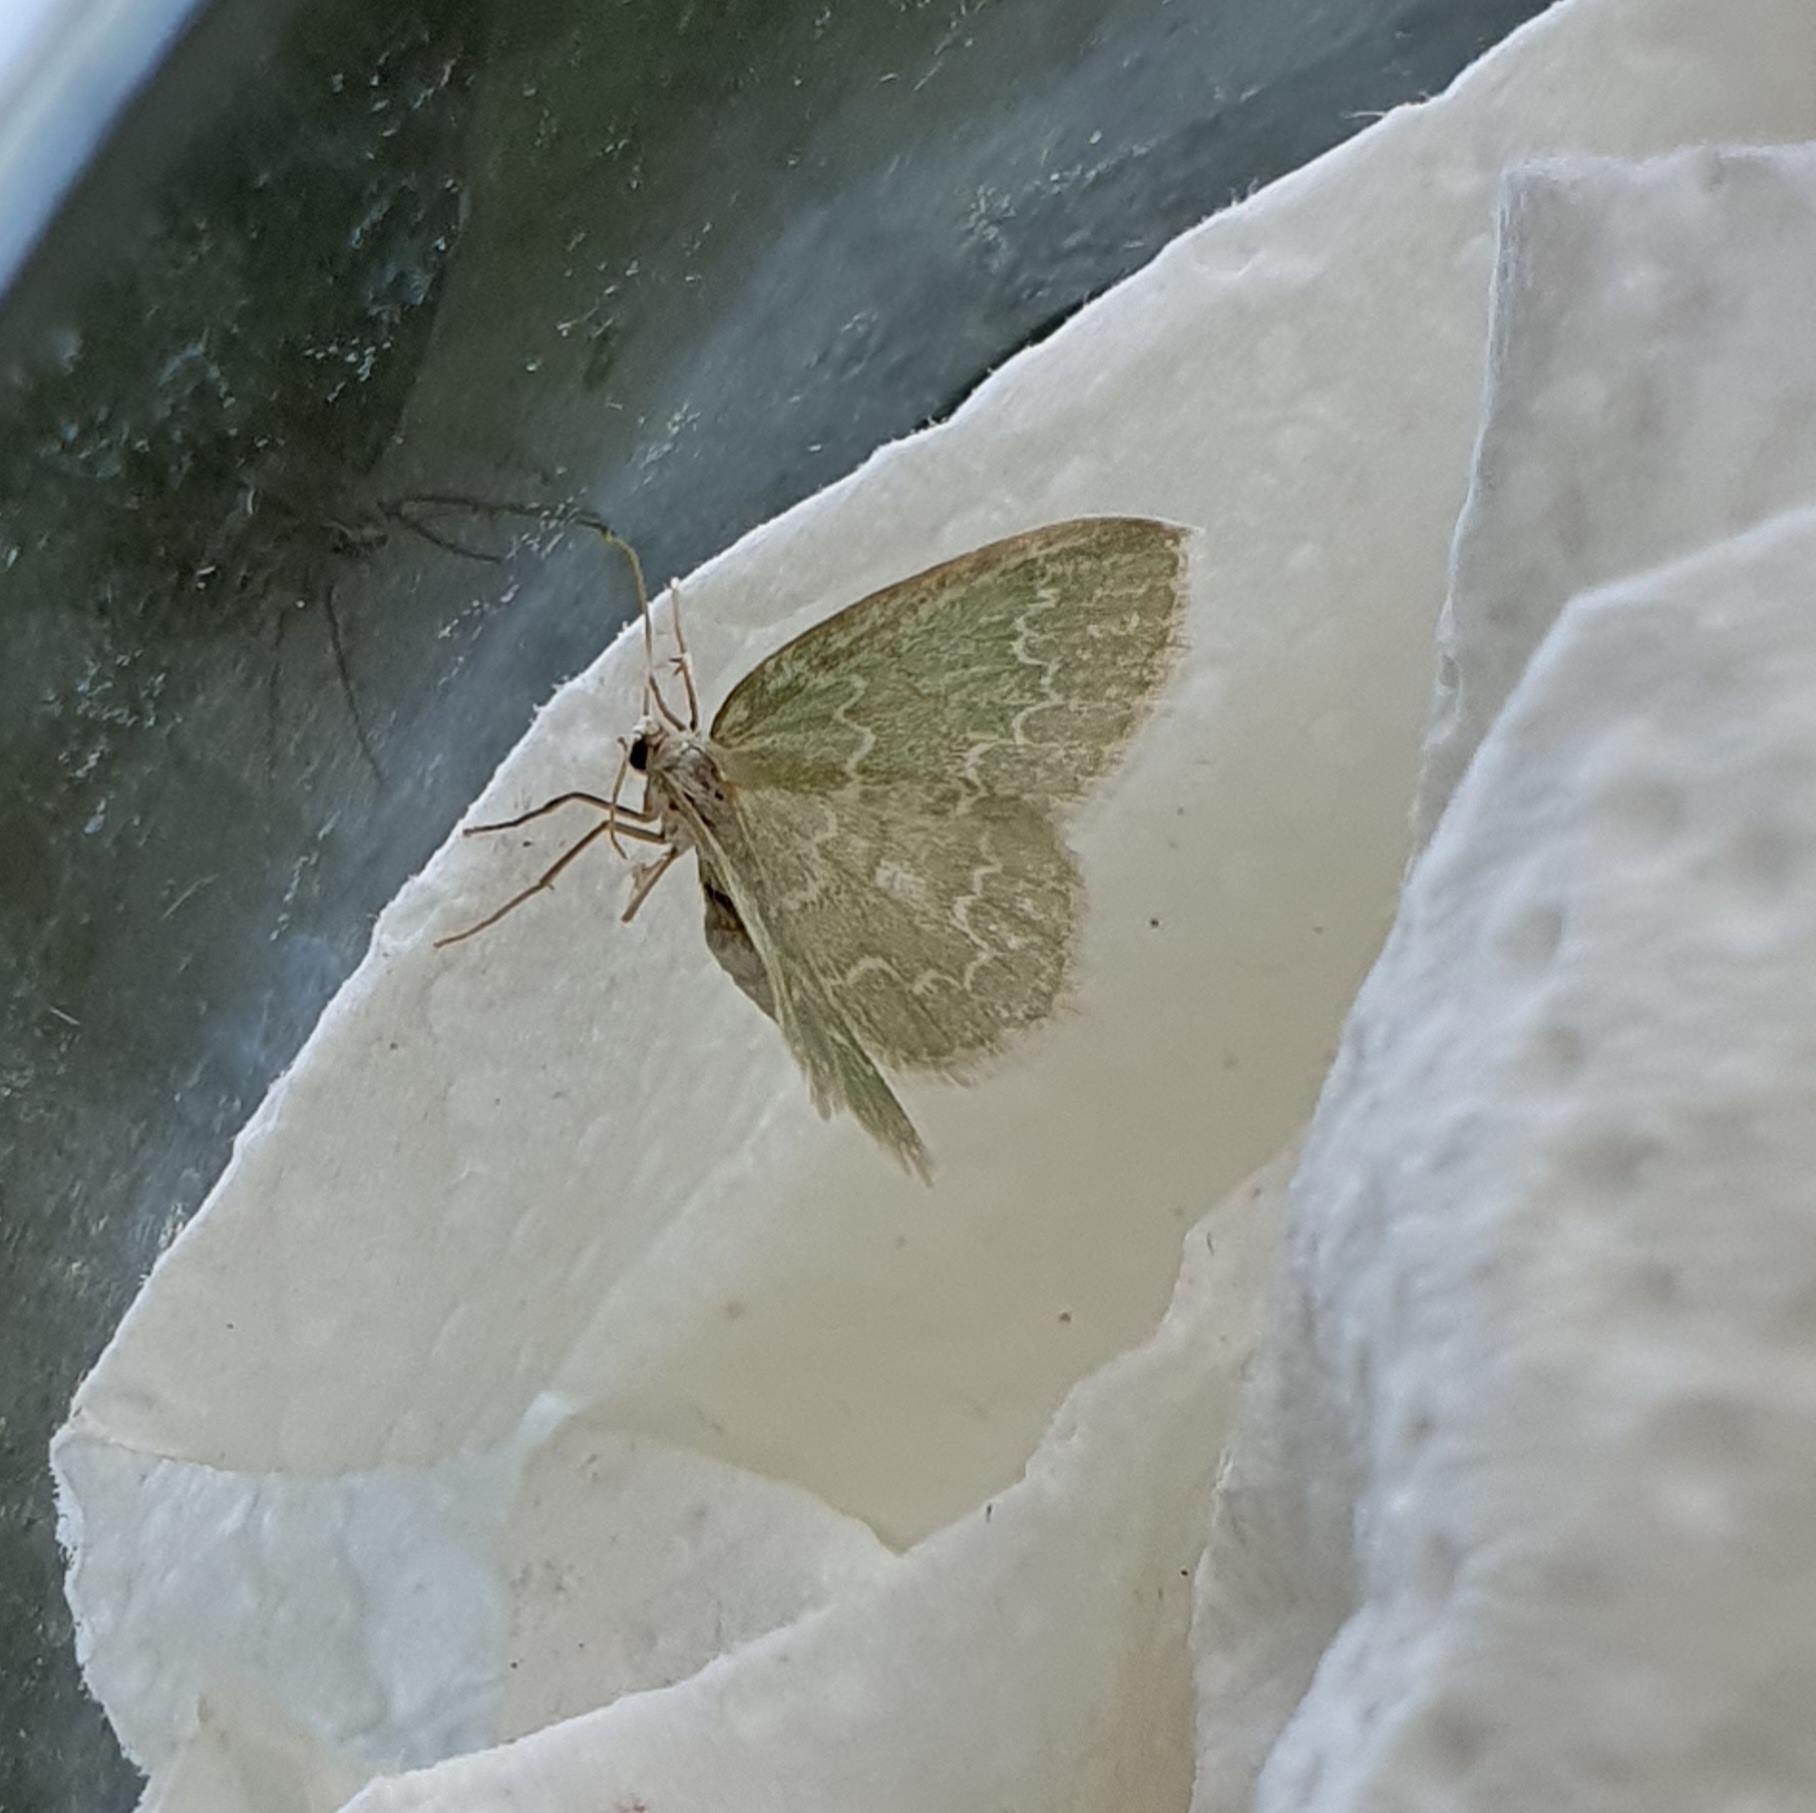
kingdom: Animalia
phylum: Arthropoda
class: Insecta
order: Lepidoptera
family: Geometridae
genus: Jodis
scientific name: Jodis putata
